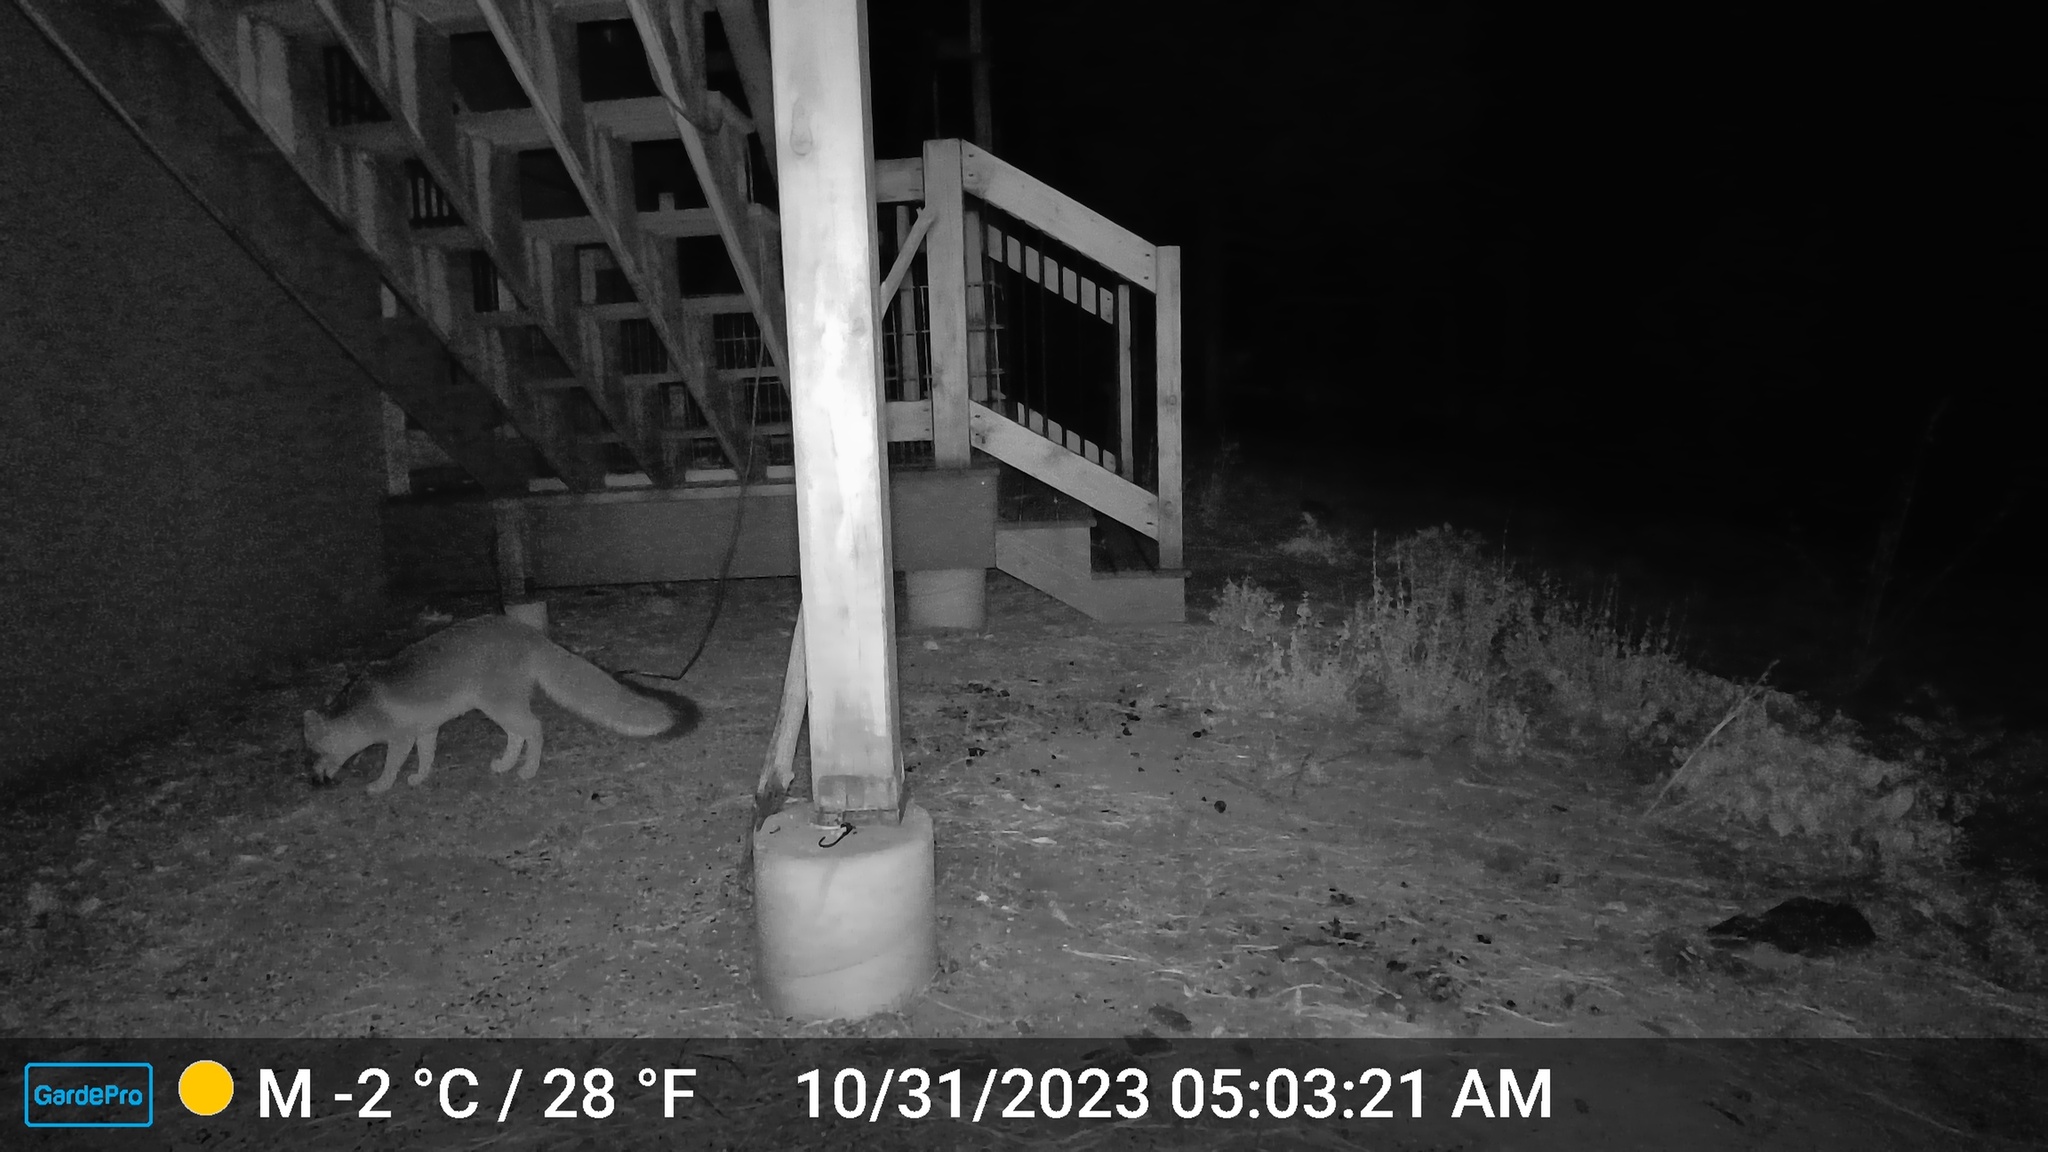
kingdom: Animalia
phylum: Chordata
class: Mammalia
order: Carnivora
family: Canidae
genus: Urocyon
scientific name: Urocyon cinereoargenteus
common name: Gray fox
